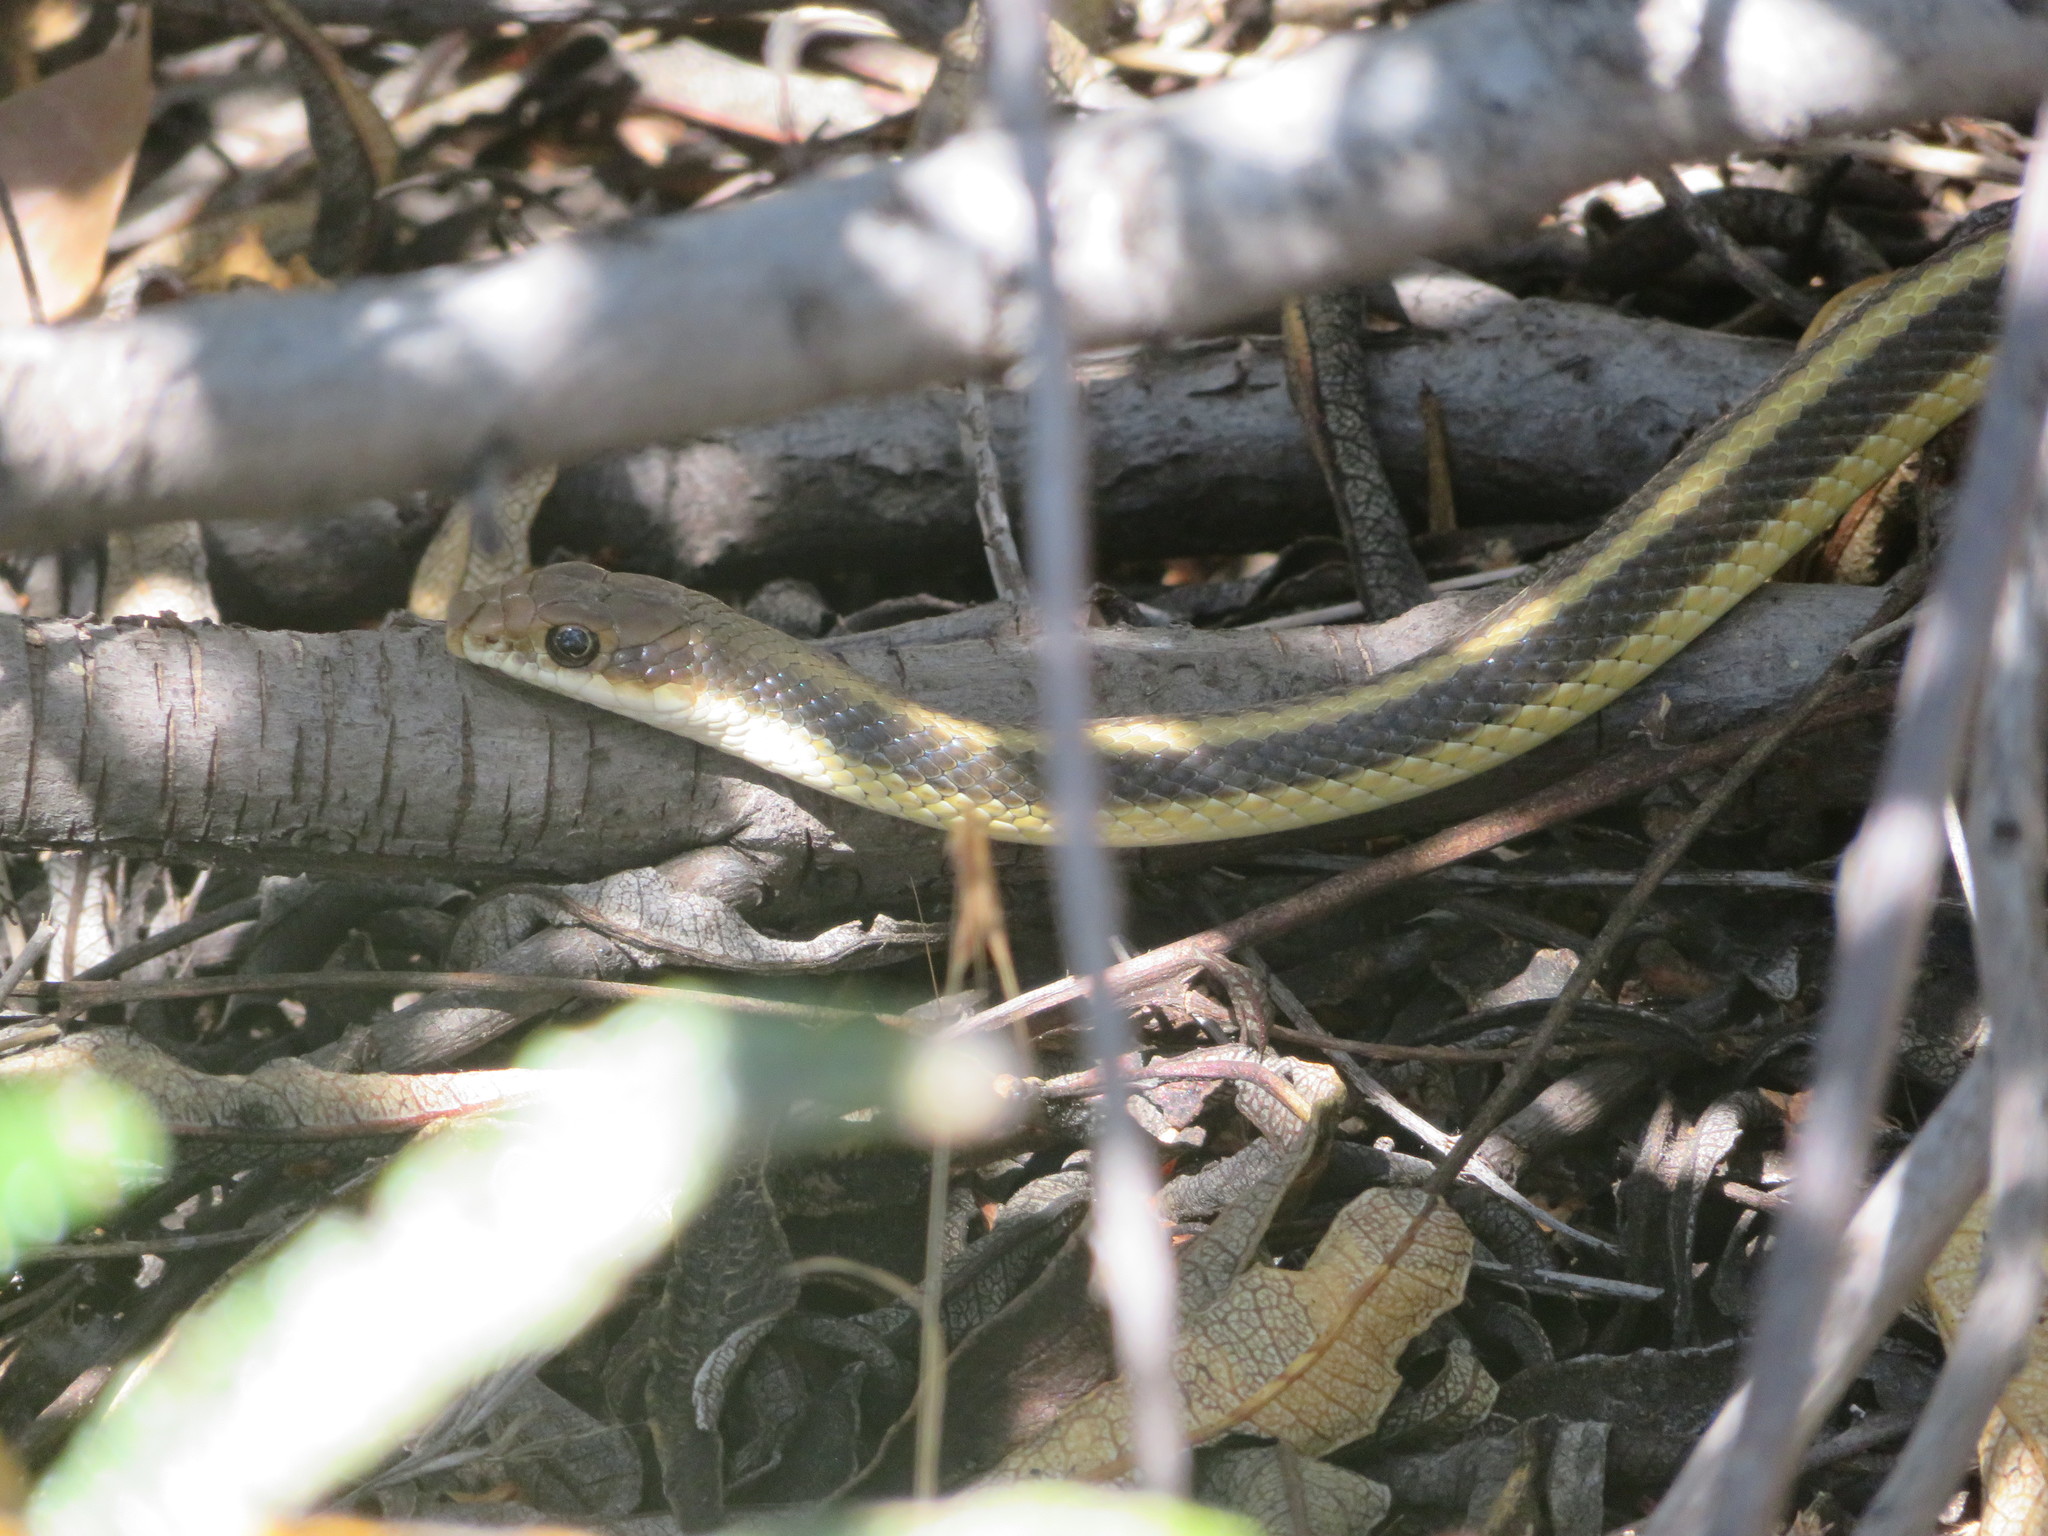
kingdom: Animalia
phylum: Chordata
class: Squamata
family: Colubridae
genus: Salvadora
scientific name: Salvadora hexalepis
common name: Western patchnose snake
